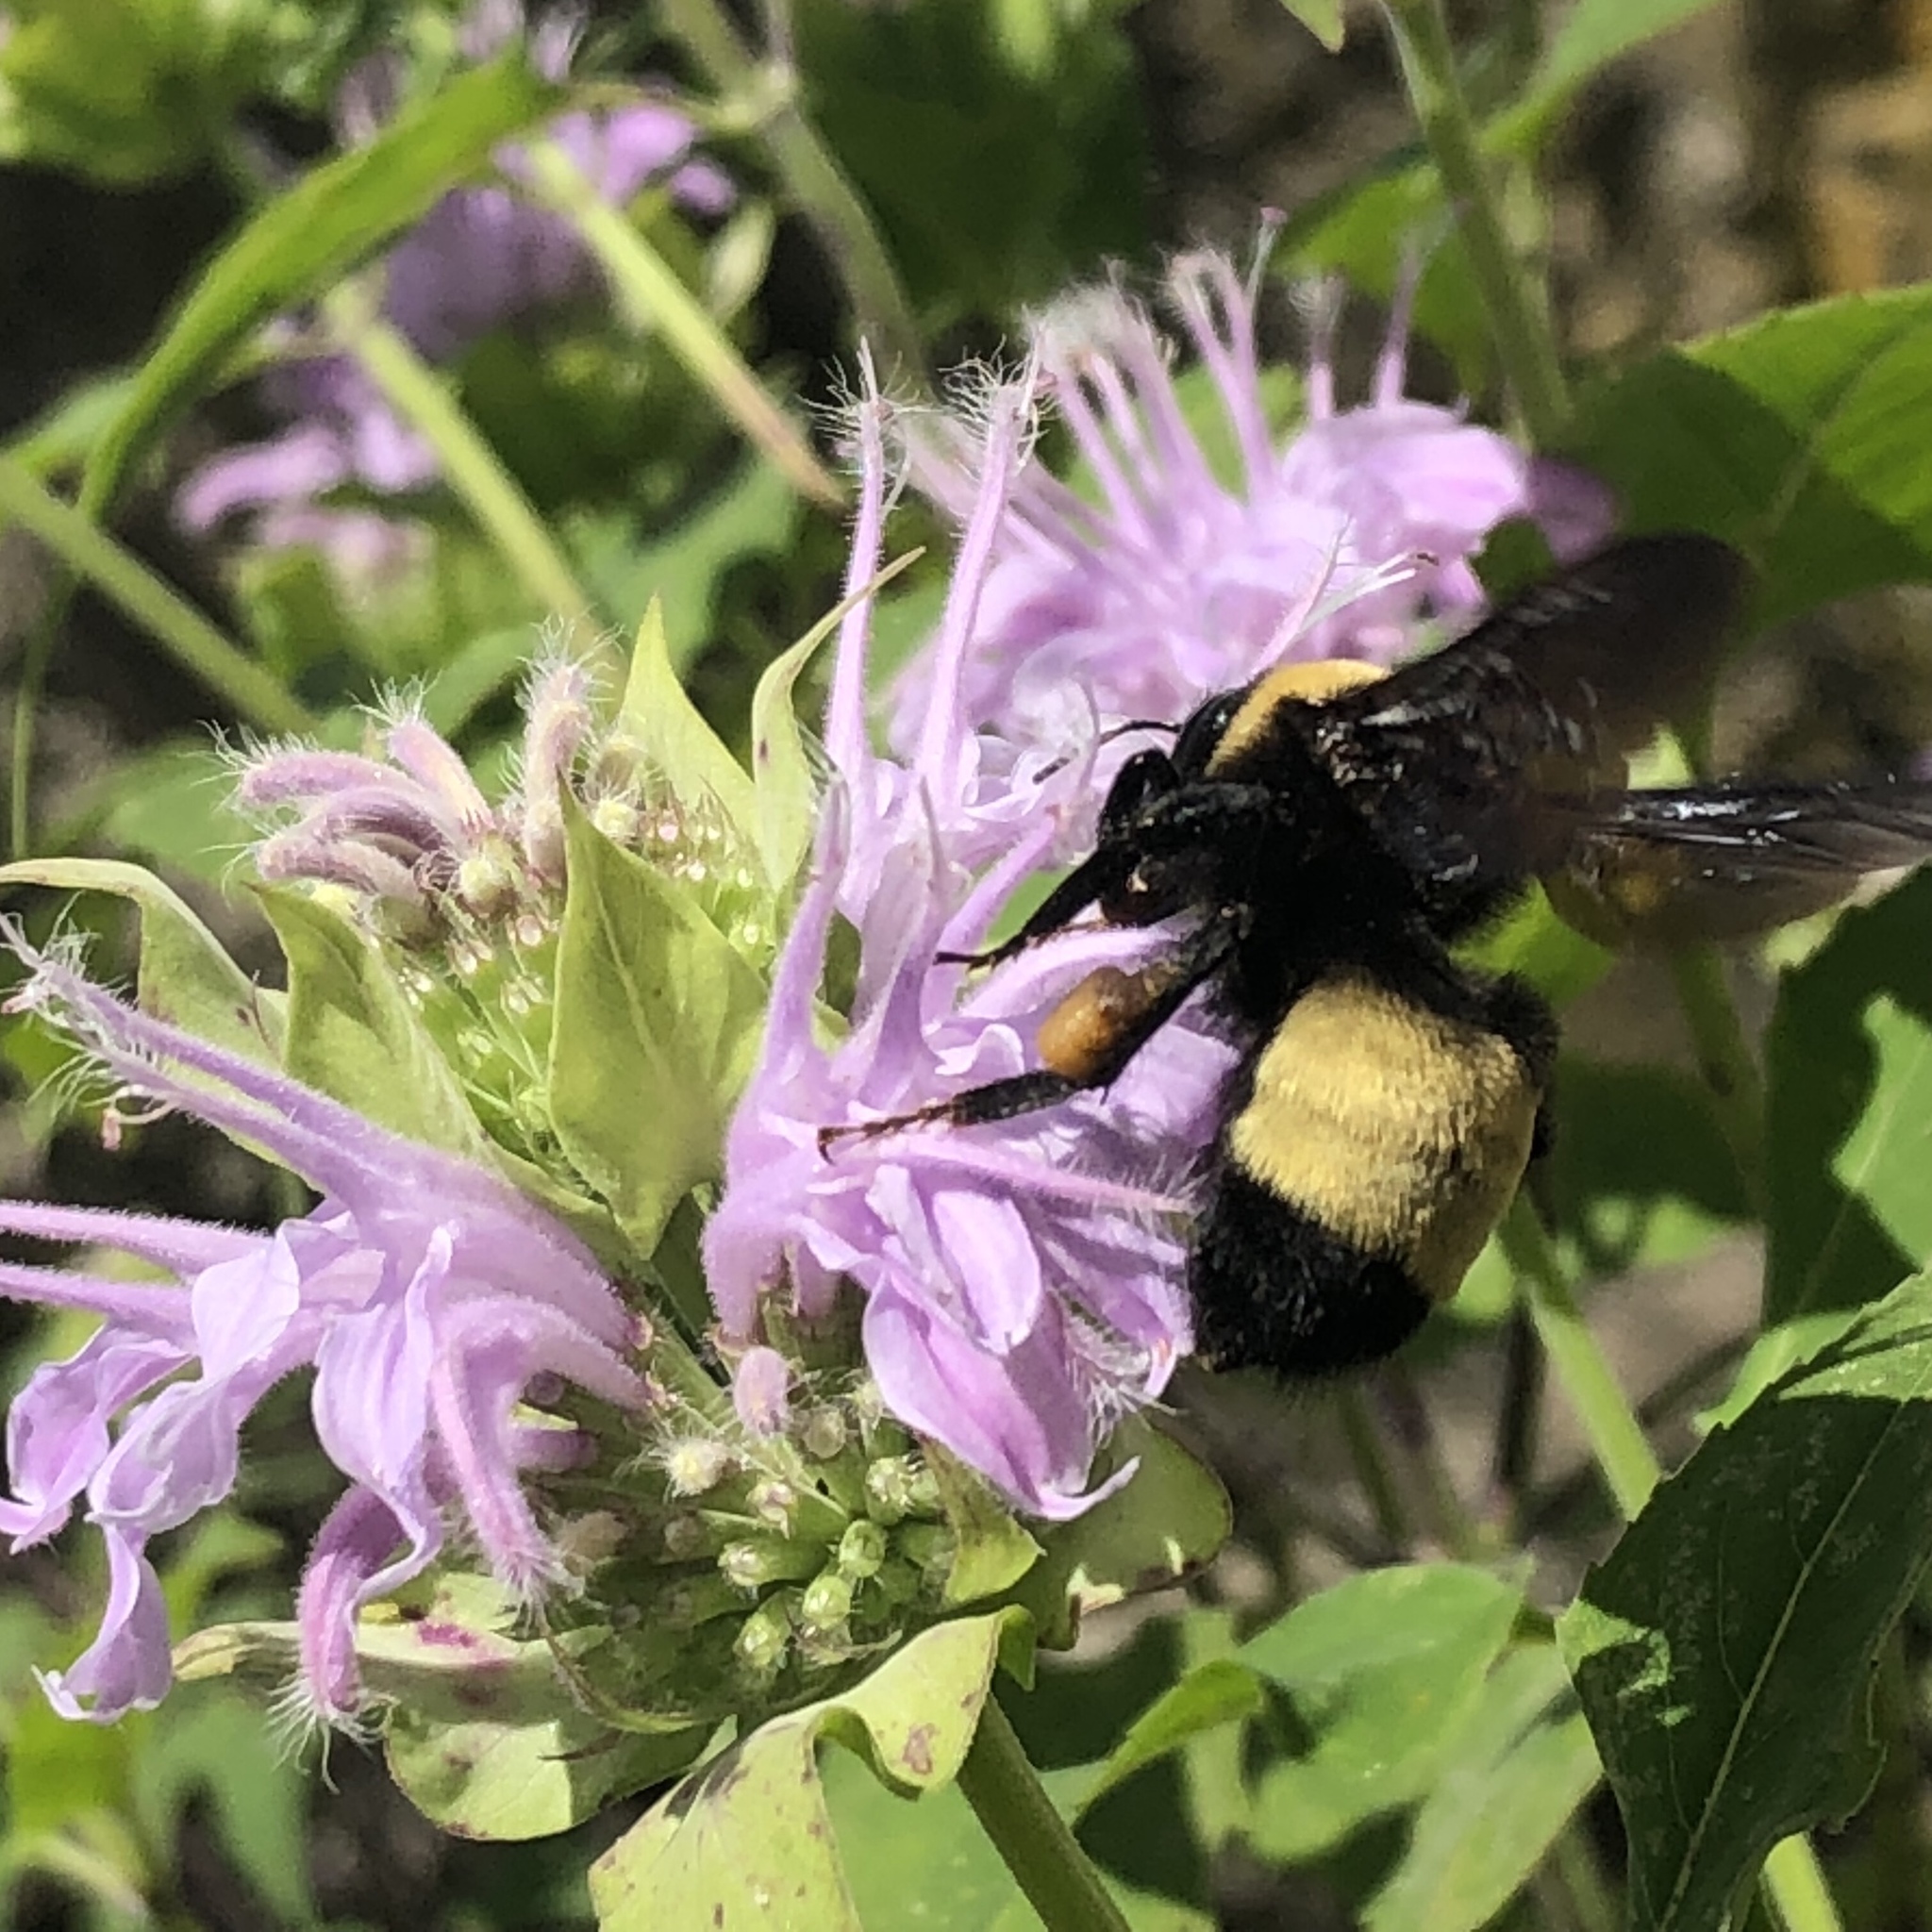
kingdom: Animalia
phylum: Arthropoda
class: Insecta
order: Hymenoptera
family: Apidae
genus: Bombus
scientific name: Bombus pensylvanicus
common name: Bumble bee
